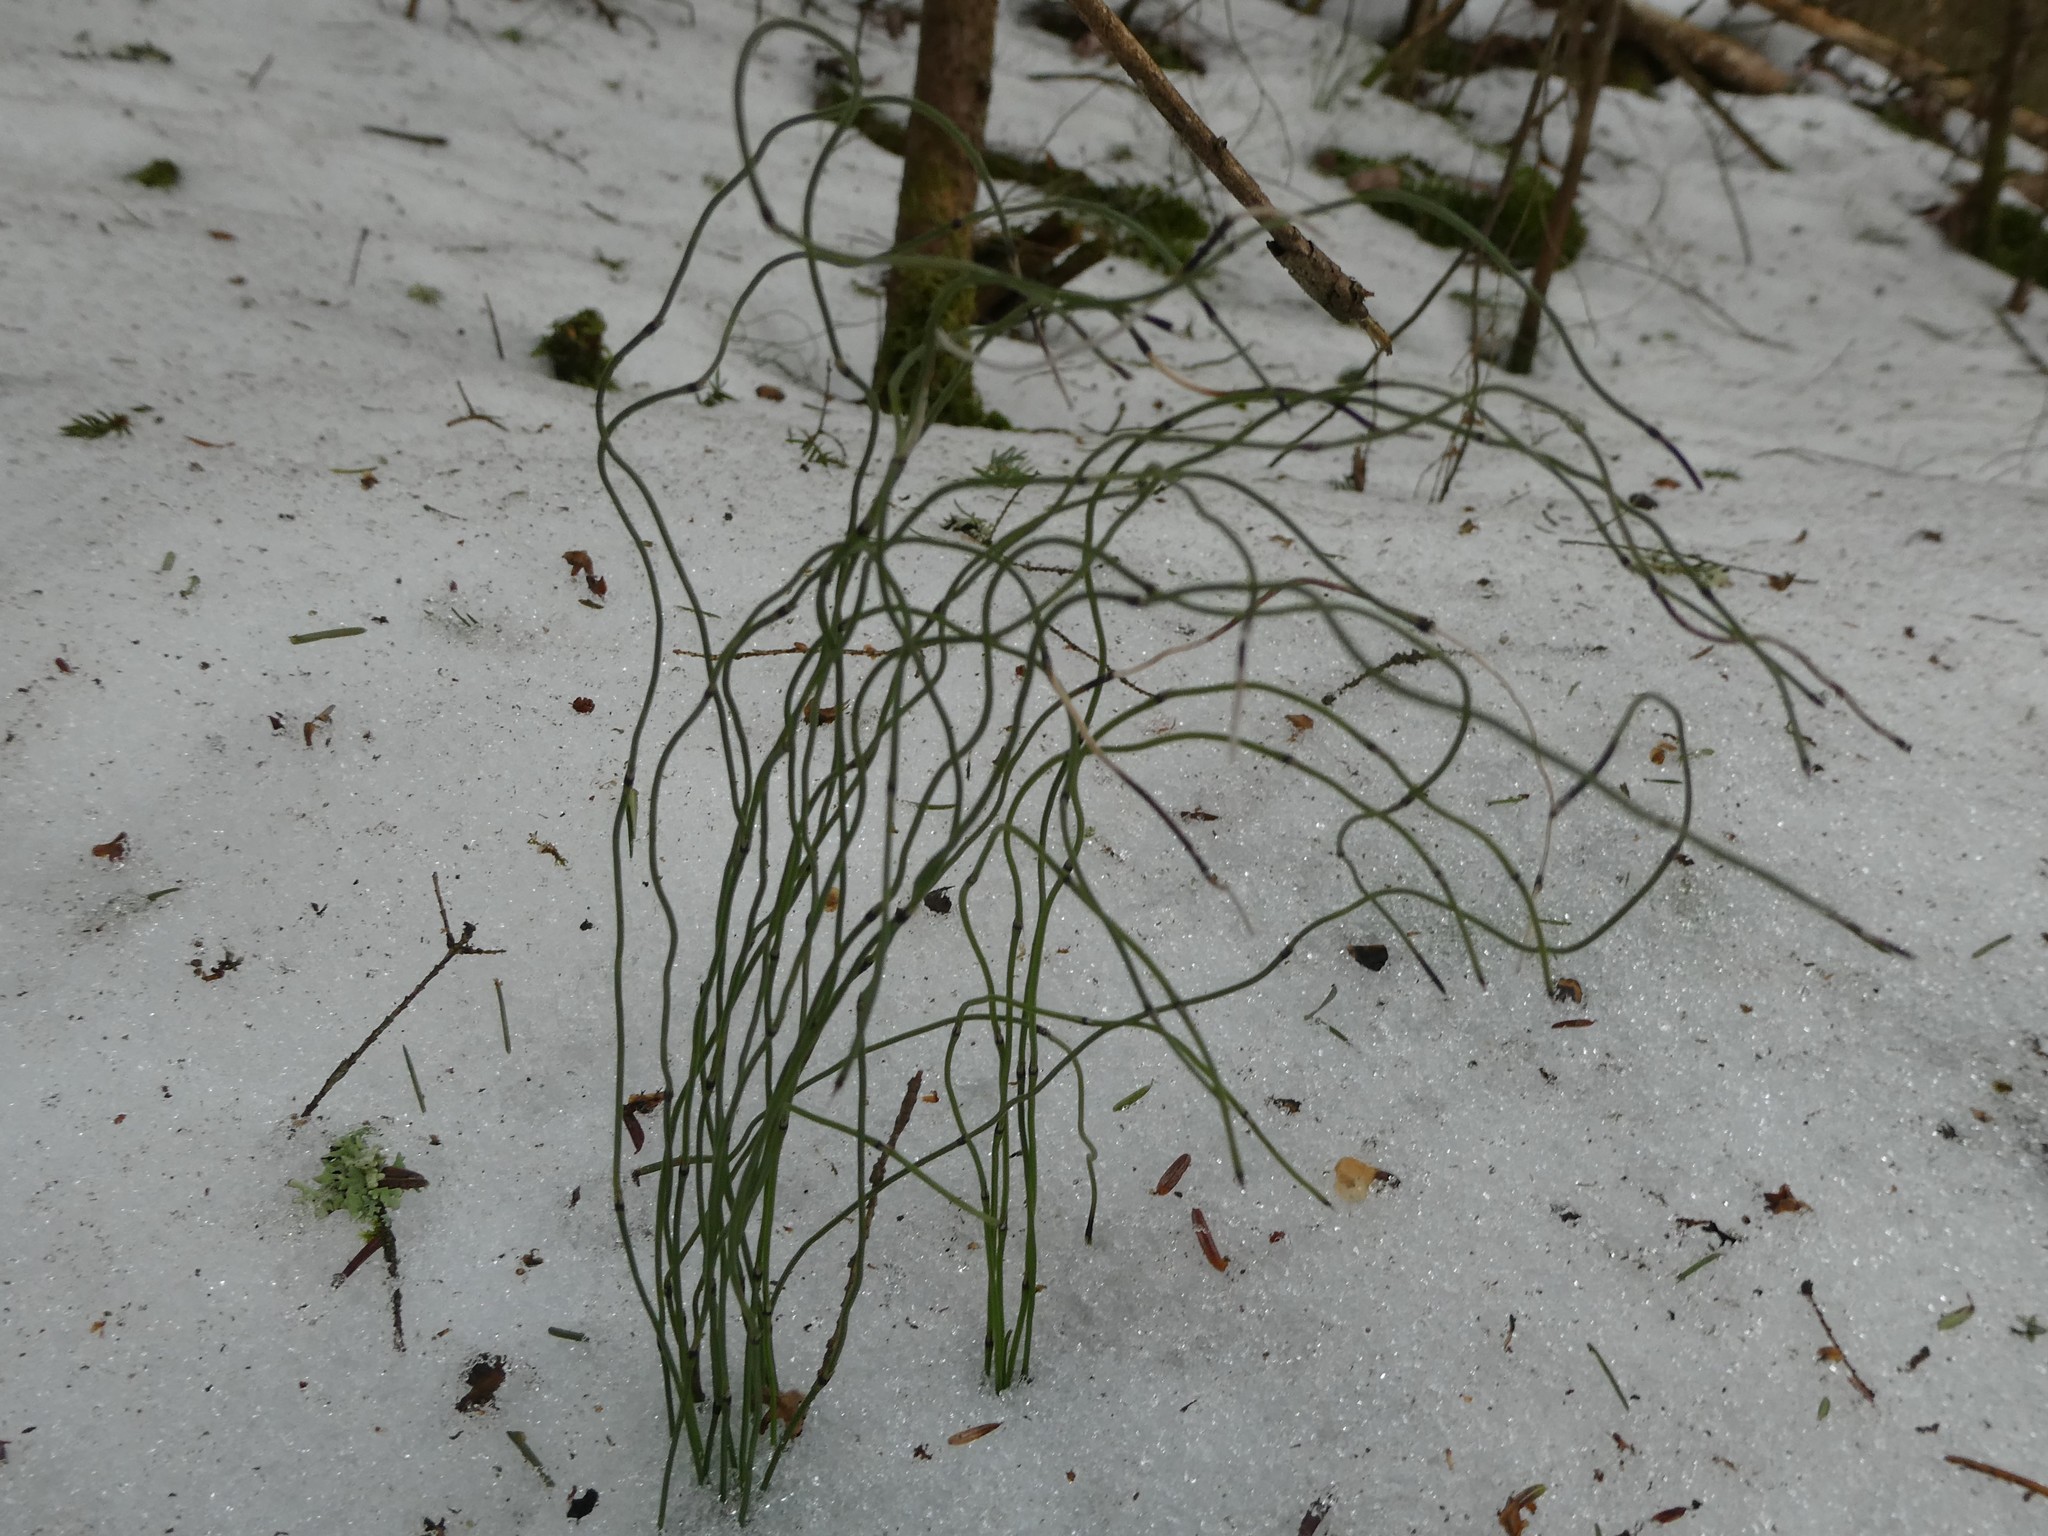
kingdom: Plantae
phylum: Tracheophyta
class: Polypodiopsida
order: Equisetales
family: Equisetaceae
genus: Equisetum
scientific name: Equisetum scirpoides
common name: Delicate horsetail
